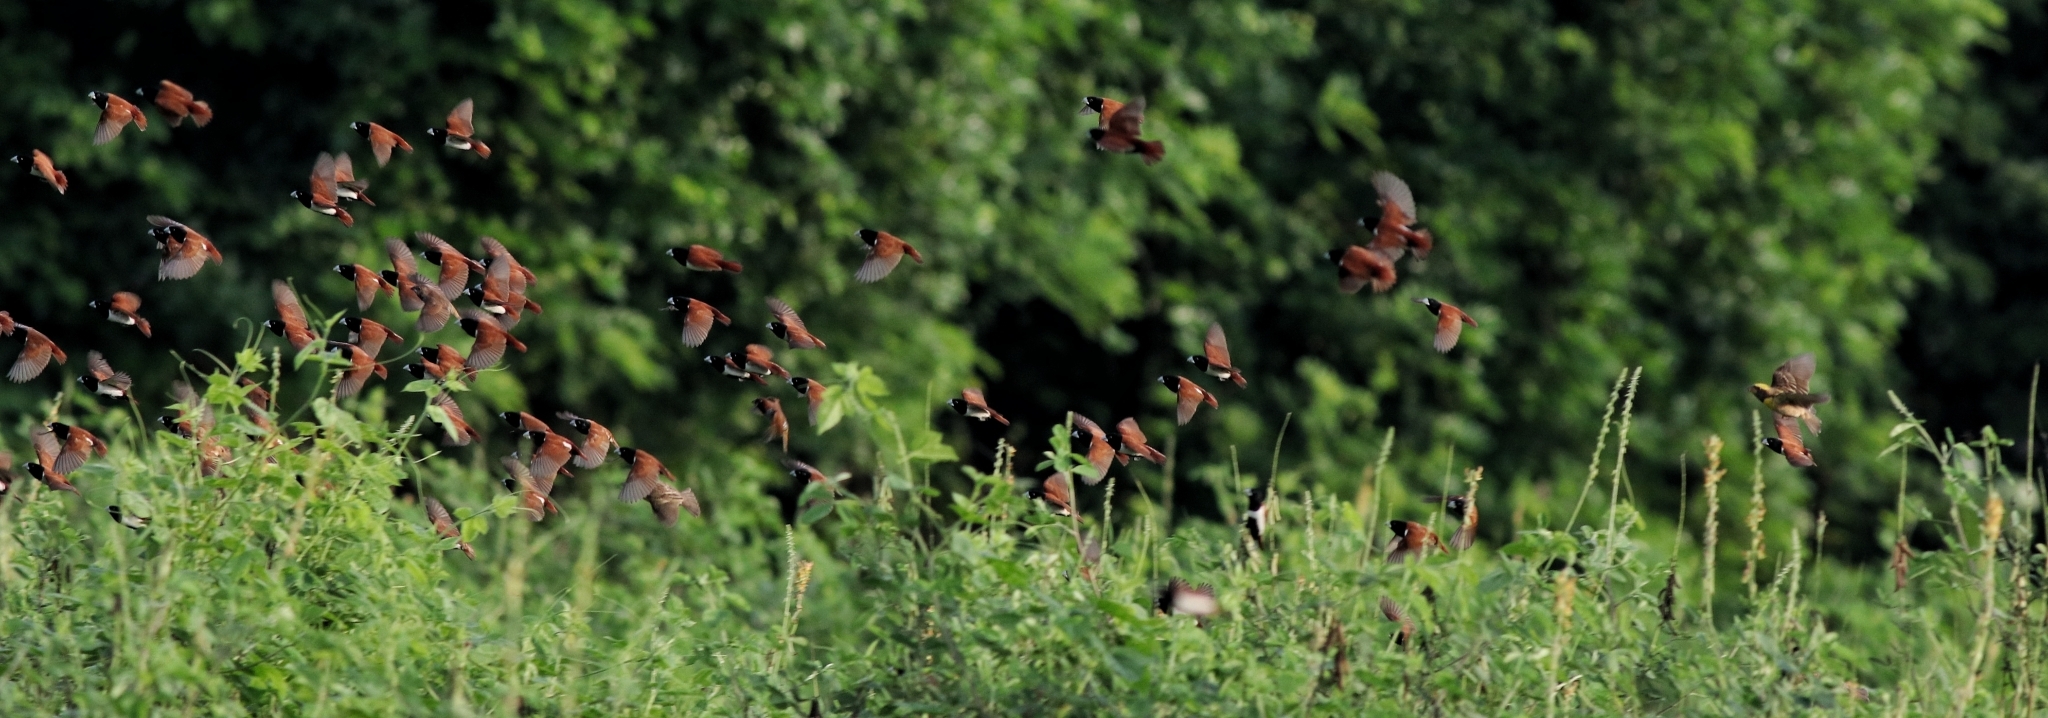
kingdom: Animalia
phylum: Chordata
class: Aves
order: Passeriformes
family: Estrildidae
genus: Lonchura
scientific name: Lonchura malacca
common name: Tricolored munia
